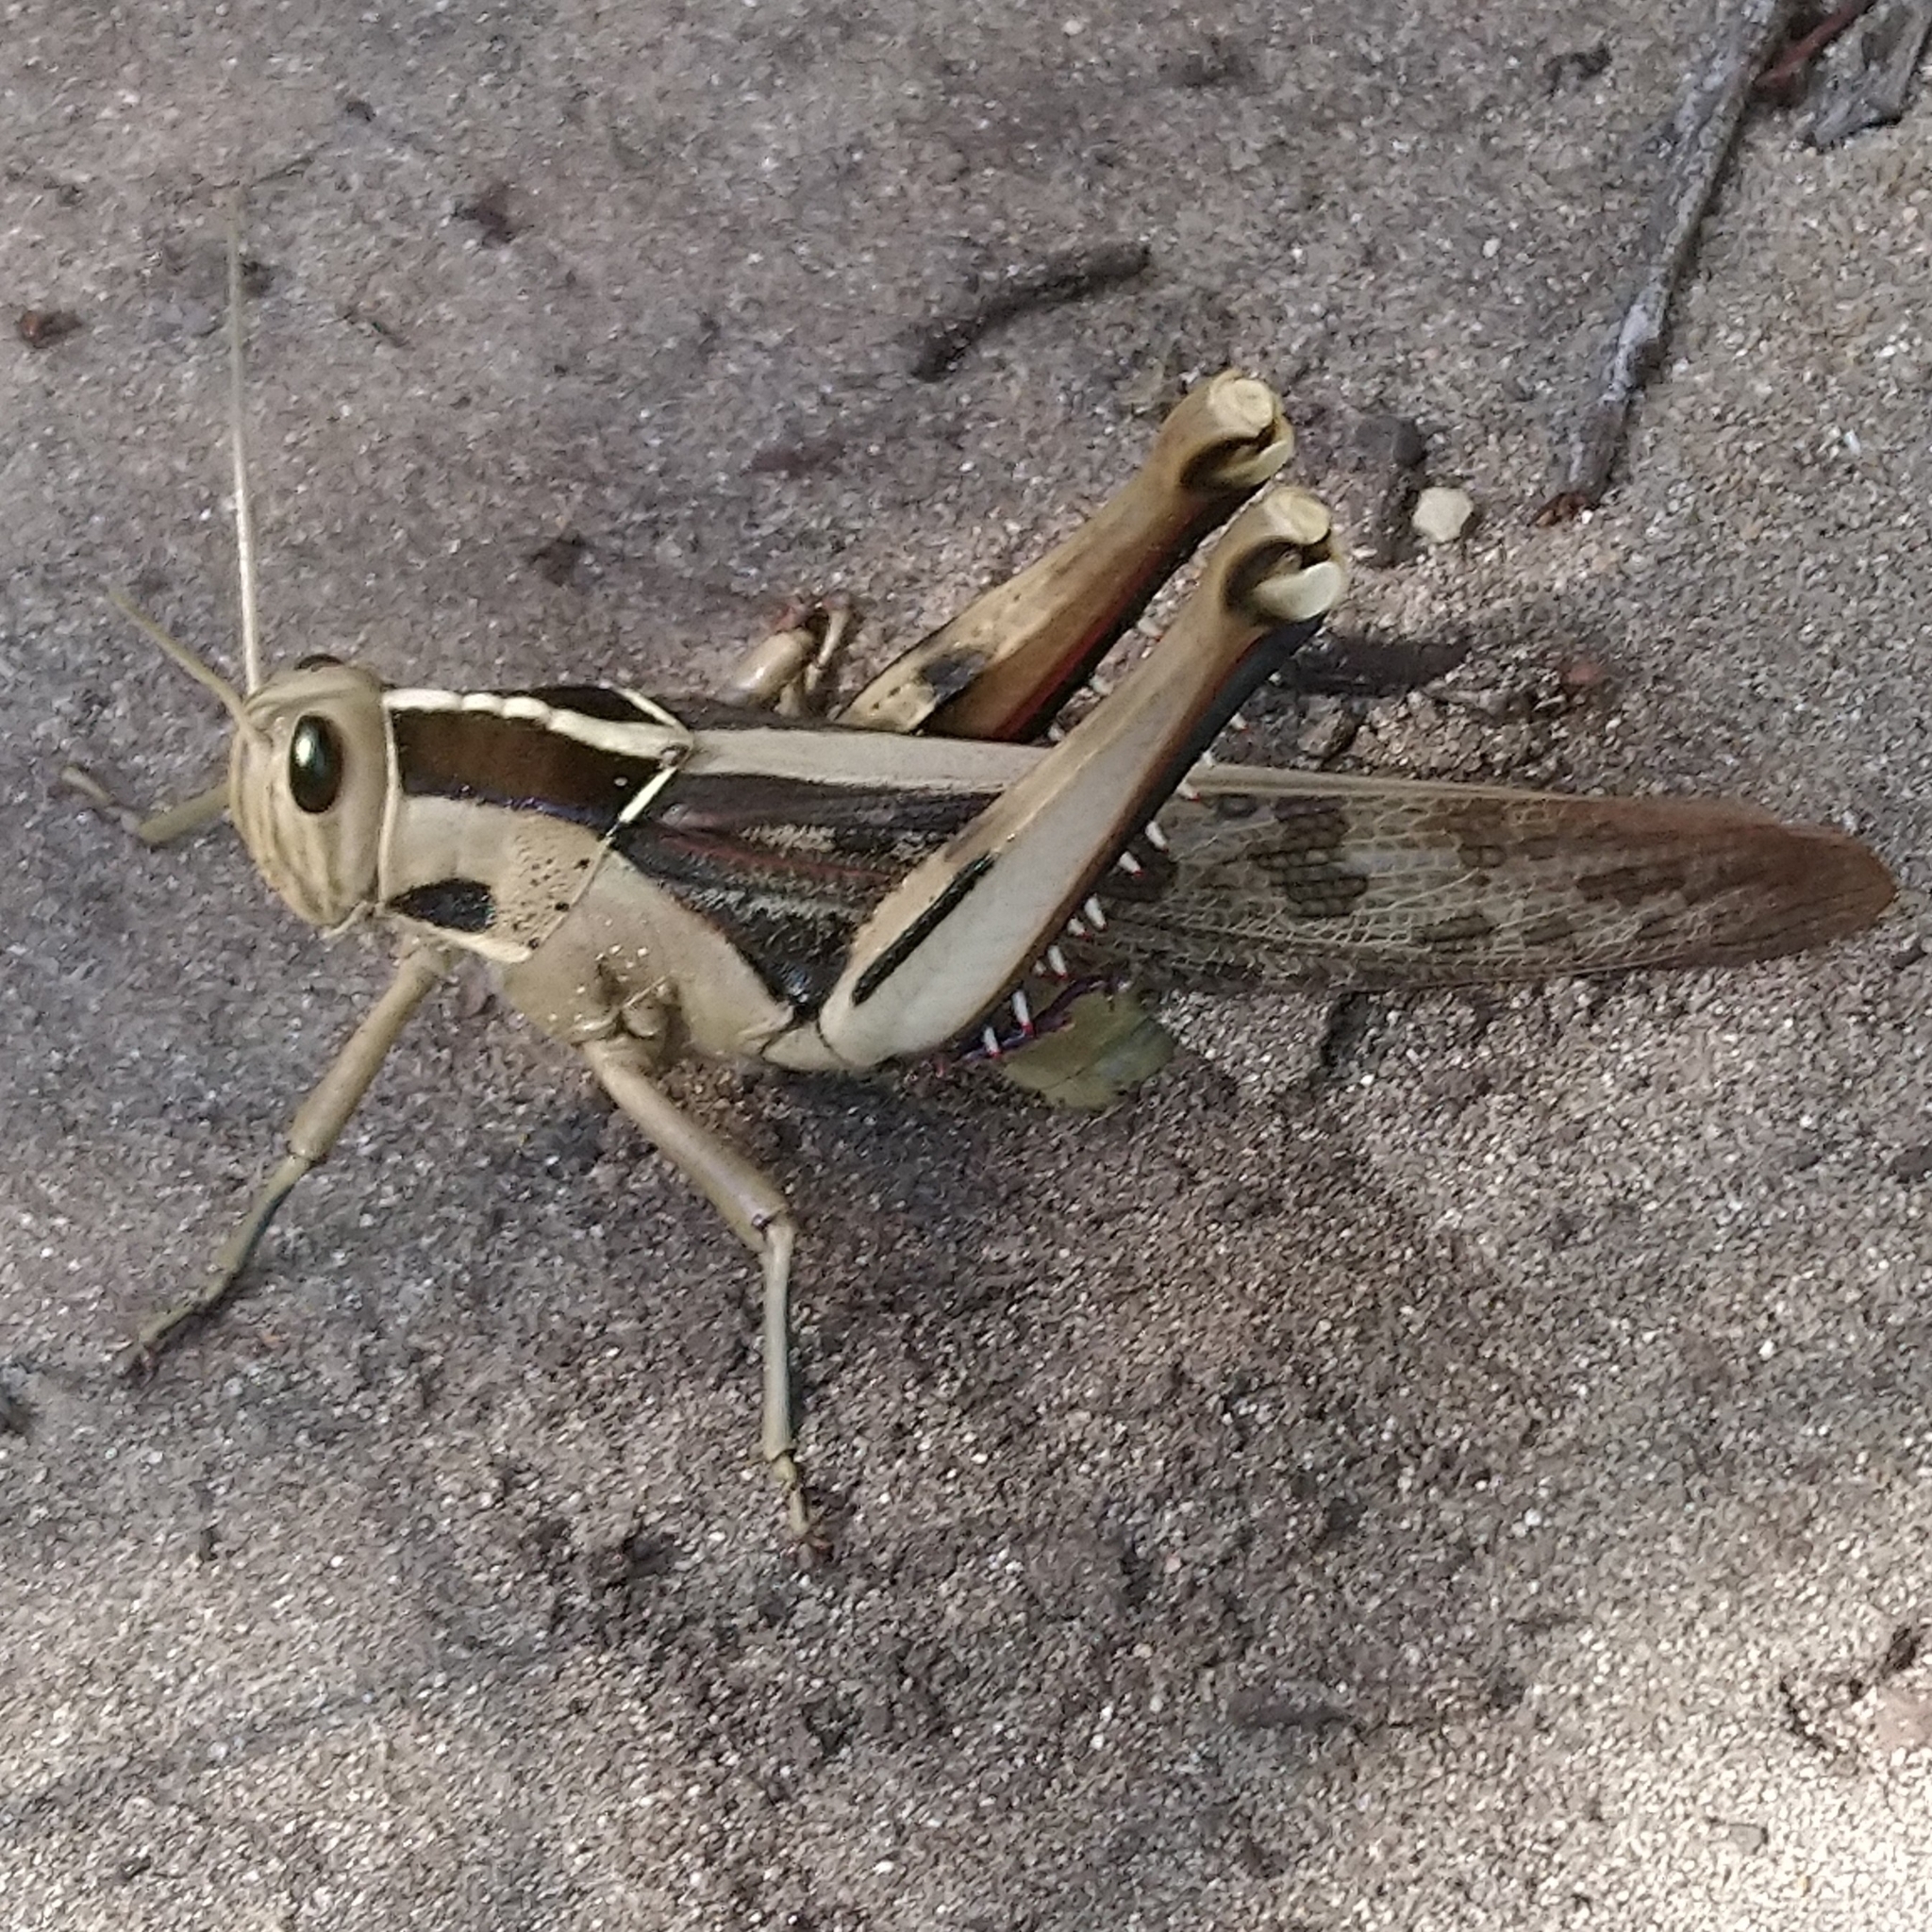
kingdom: Animalia
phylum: Arthropoda
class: Insecta
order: Orthoptera
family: Acrididae
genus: Acanthacris
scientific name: Acanthacris ruficornis
